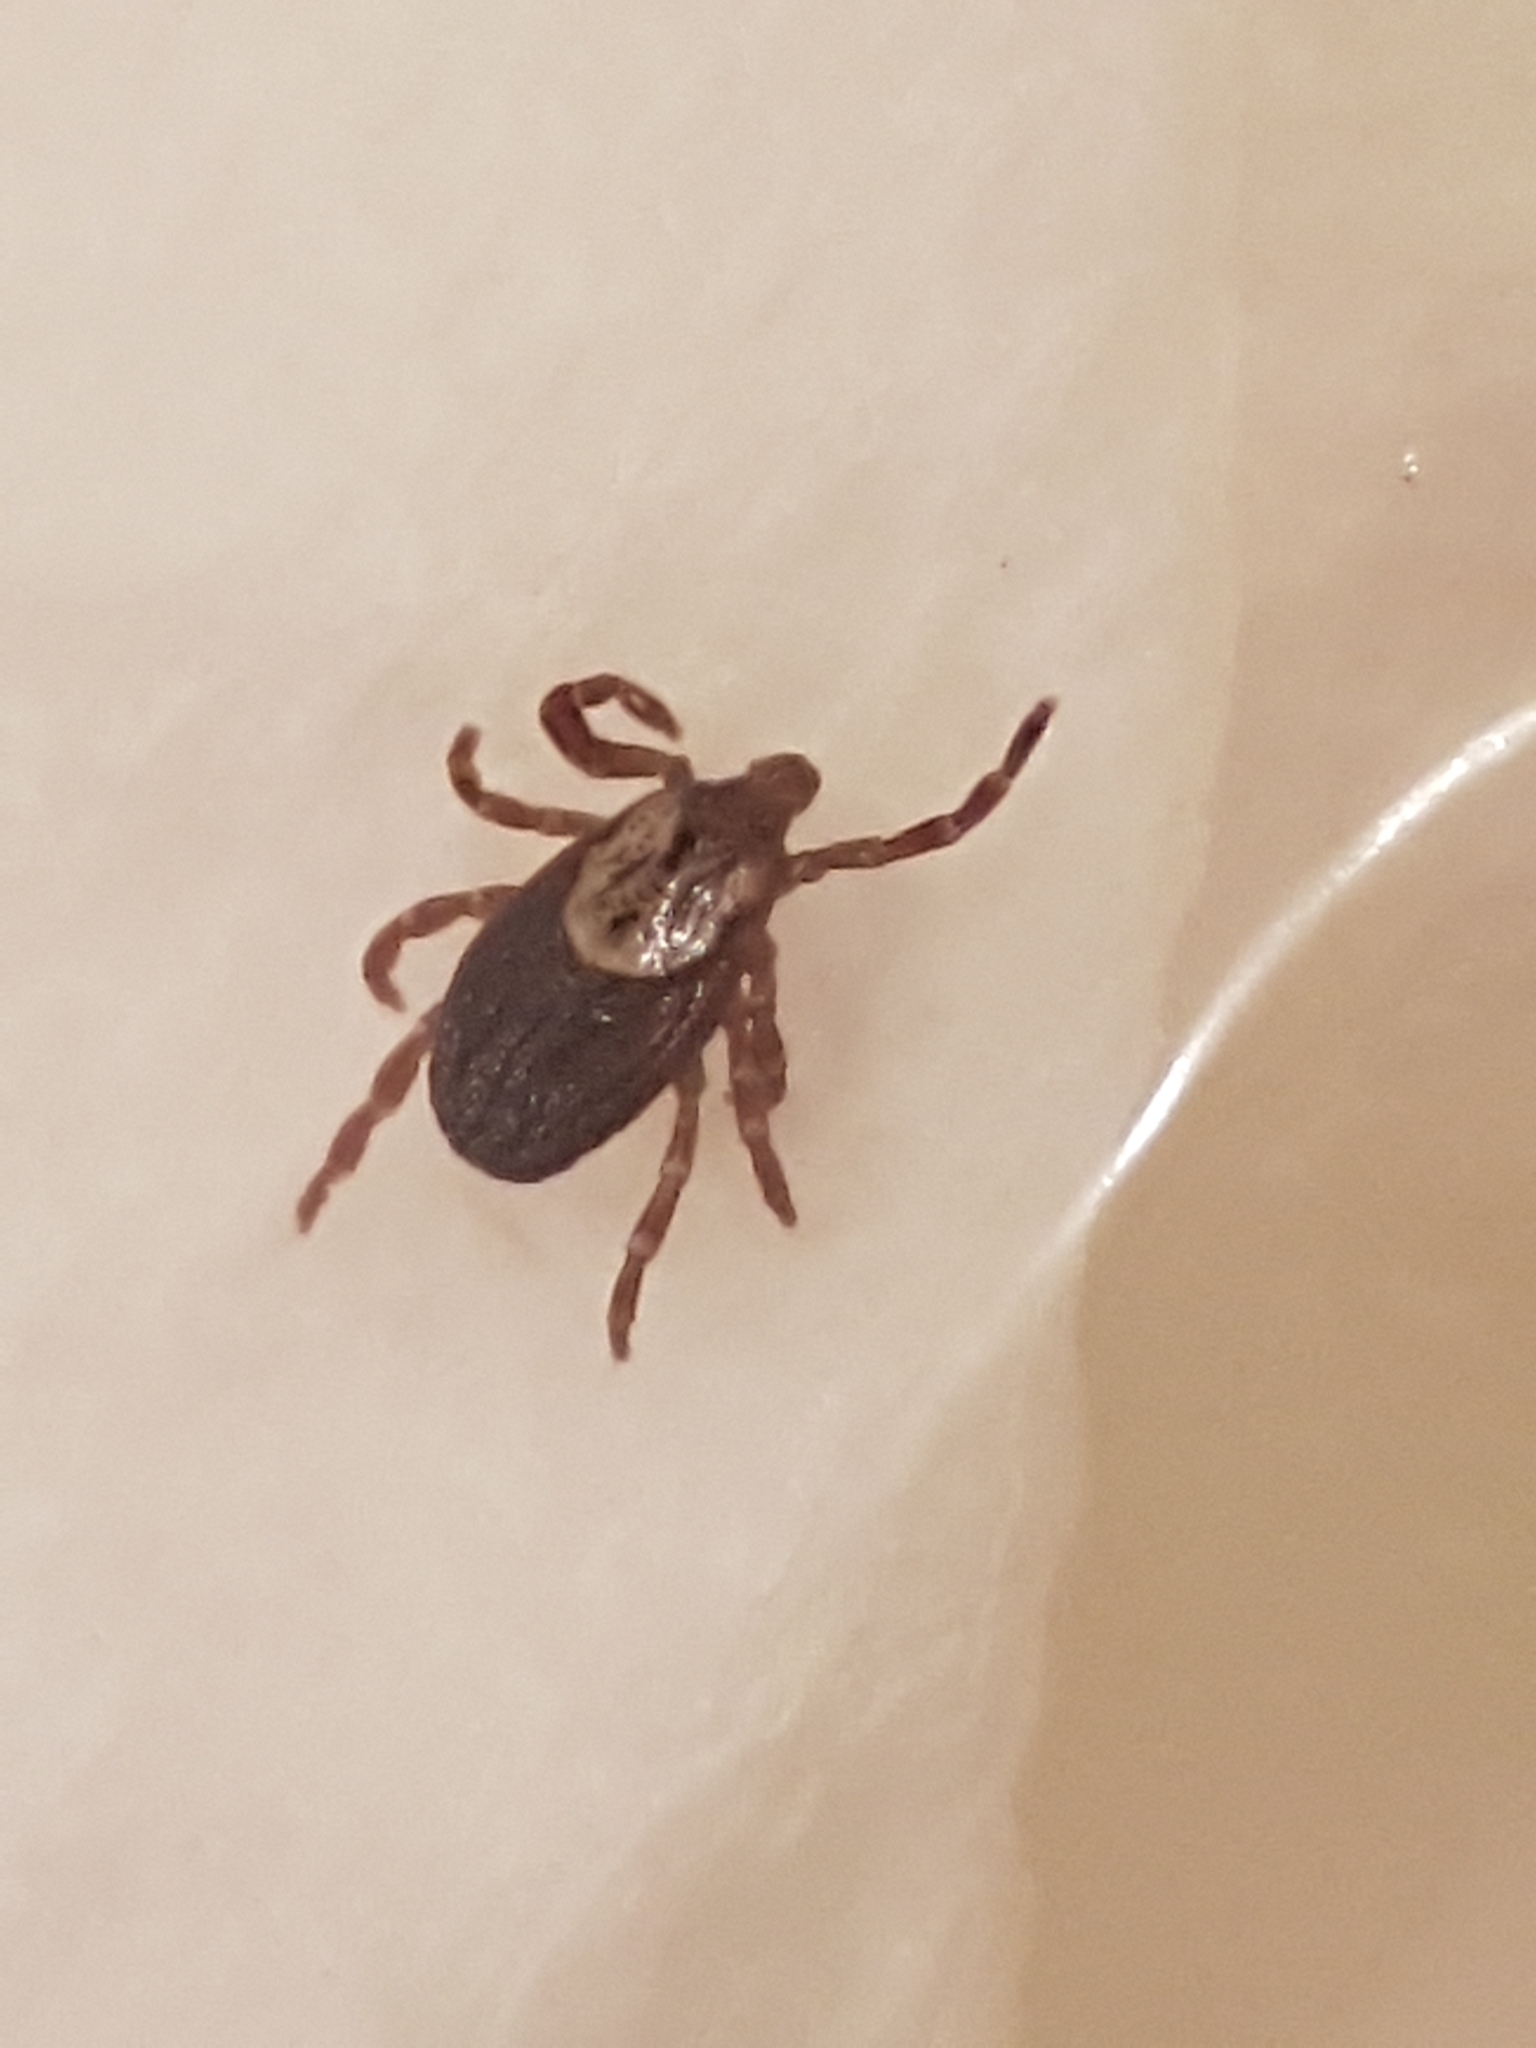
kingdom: Animalia
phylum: Arthropoda
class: Arachnida
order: Ixodida
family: Ixodidae
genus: Dermacentor
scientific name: Dermacentor variabilis
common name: American dog tick
